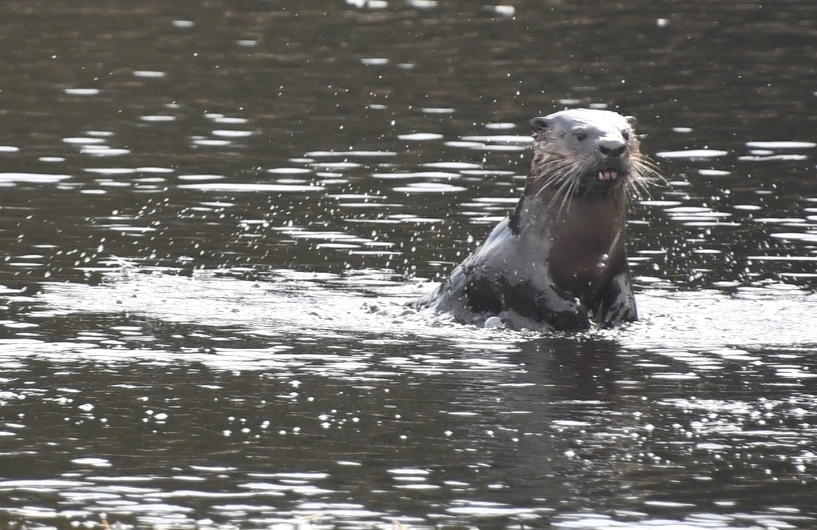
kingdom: Animalia
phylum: Chordata
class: Mammalia
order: Carnivora
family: Mustelidae
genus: Lontra
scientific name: Lontra canadensis
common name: North american river otter
